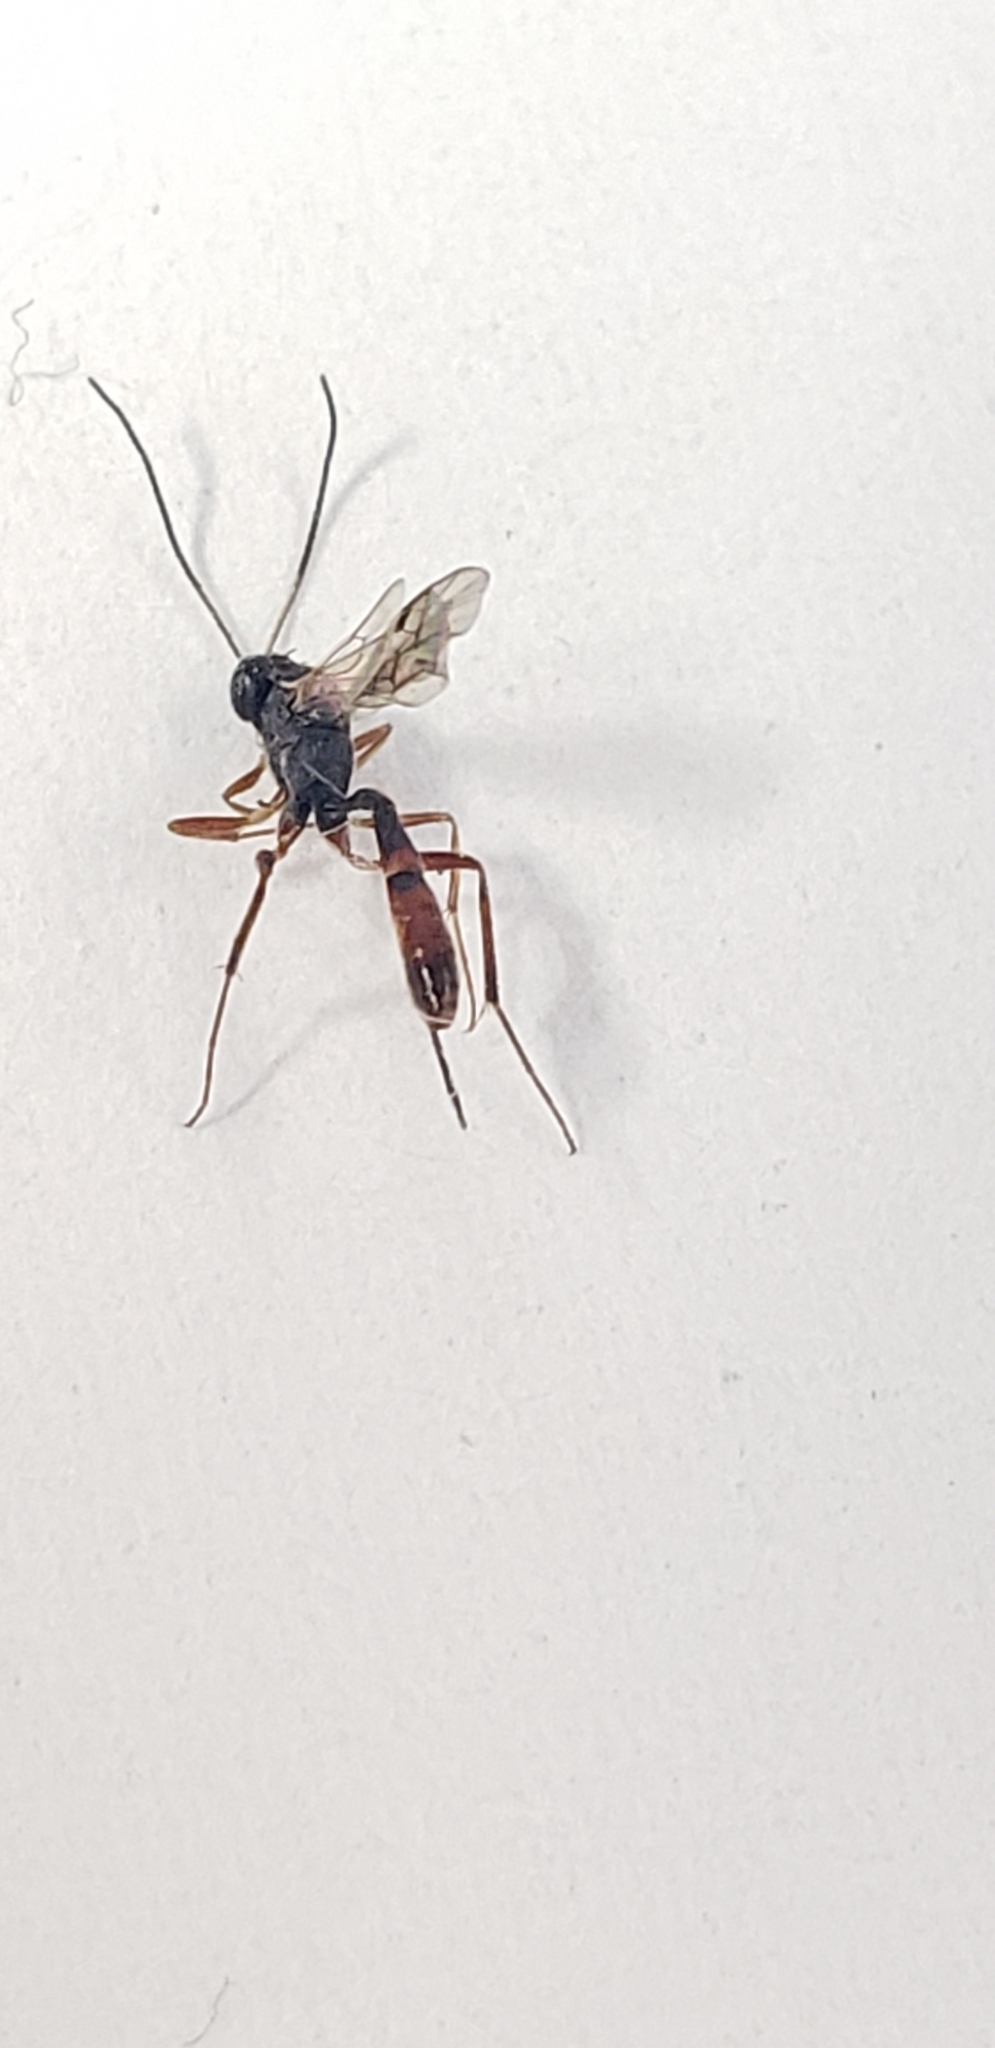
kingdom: Animalia
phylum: Arthropoda
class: Insecta
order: Hymenoptera
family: Ichneumonidae
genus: Cymodusa
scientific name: Cymodusa distincta
